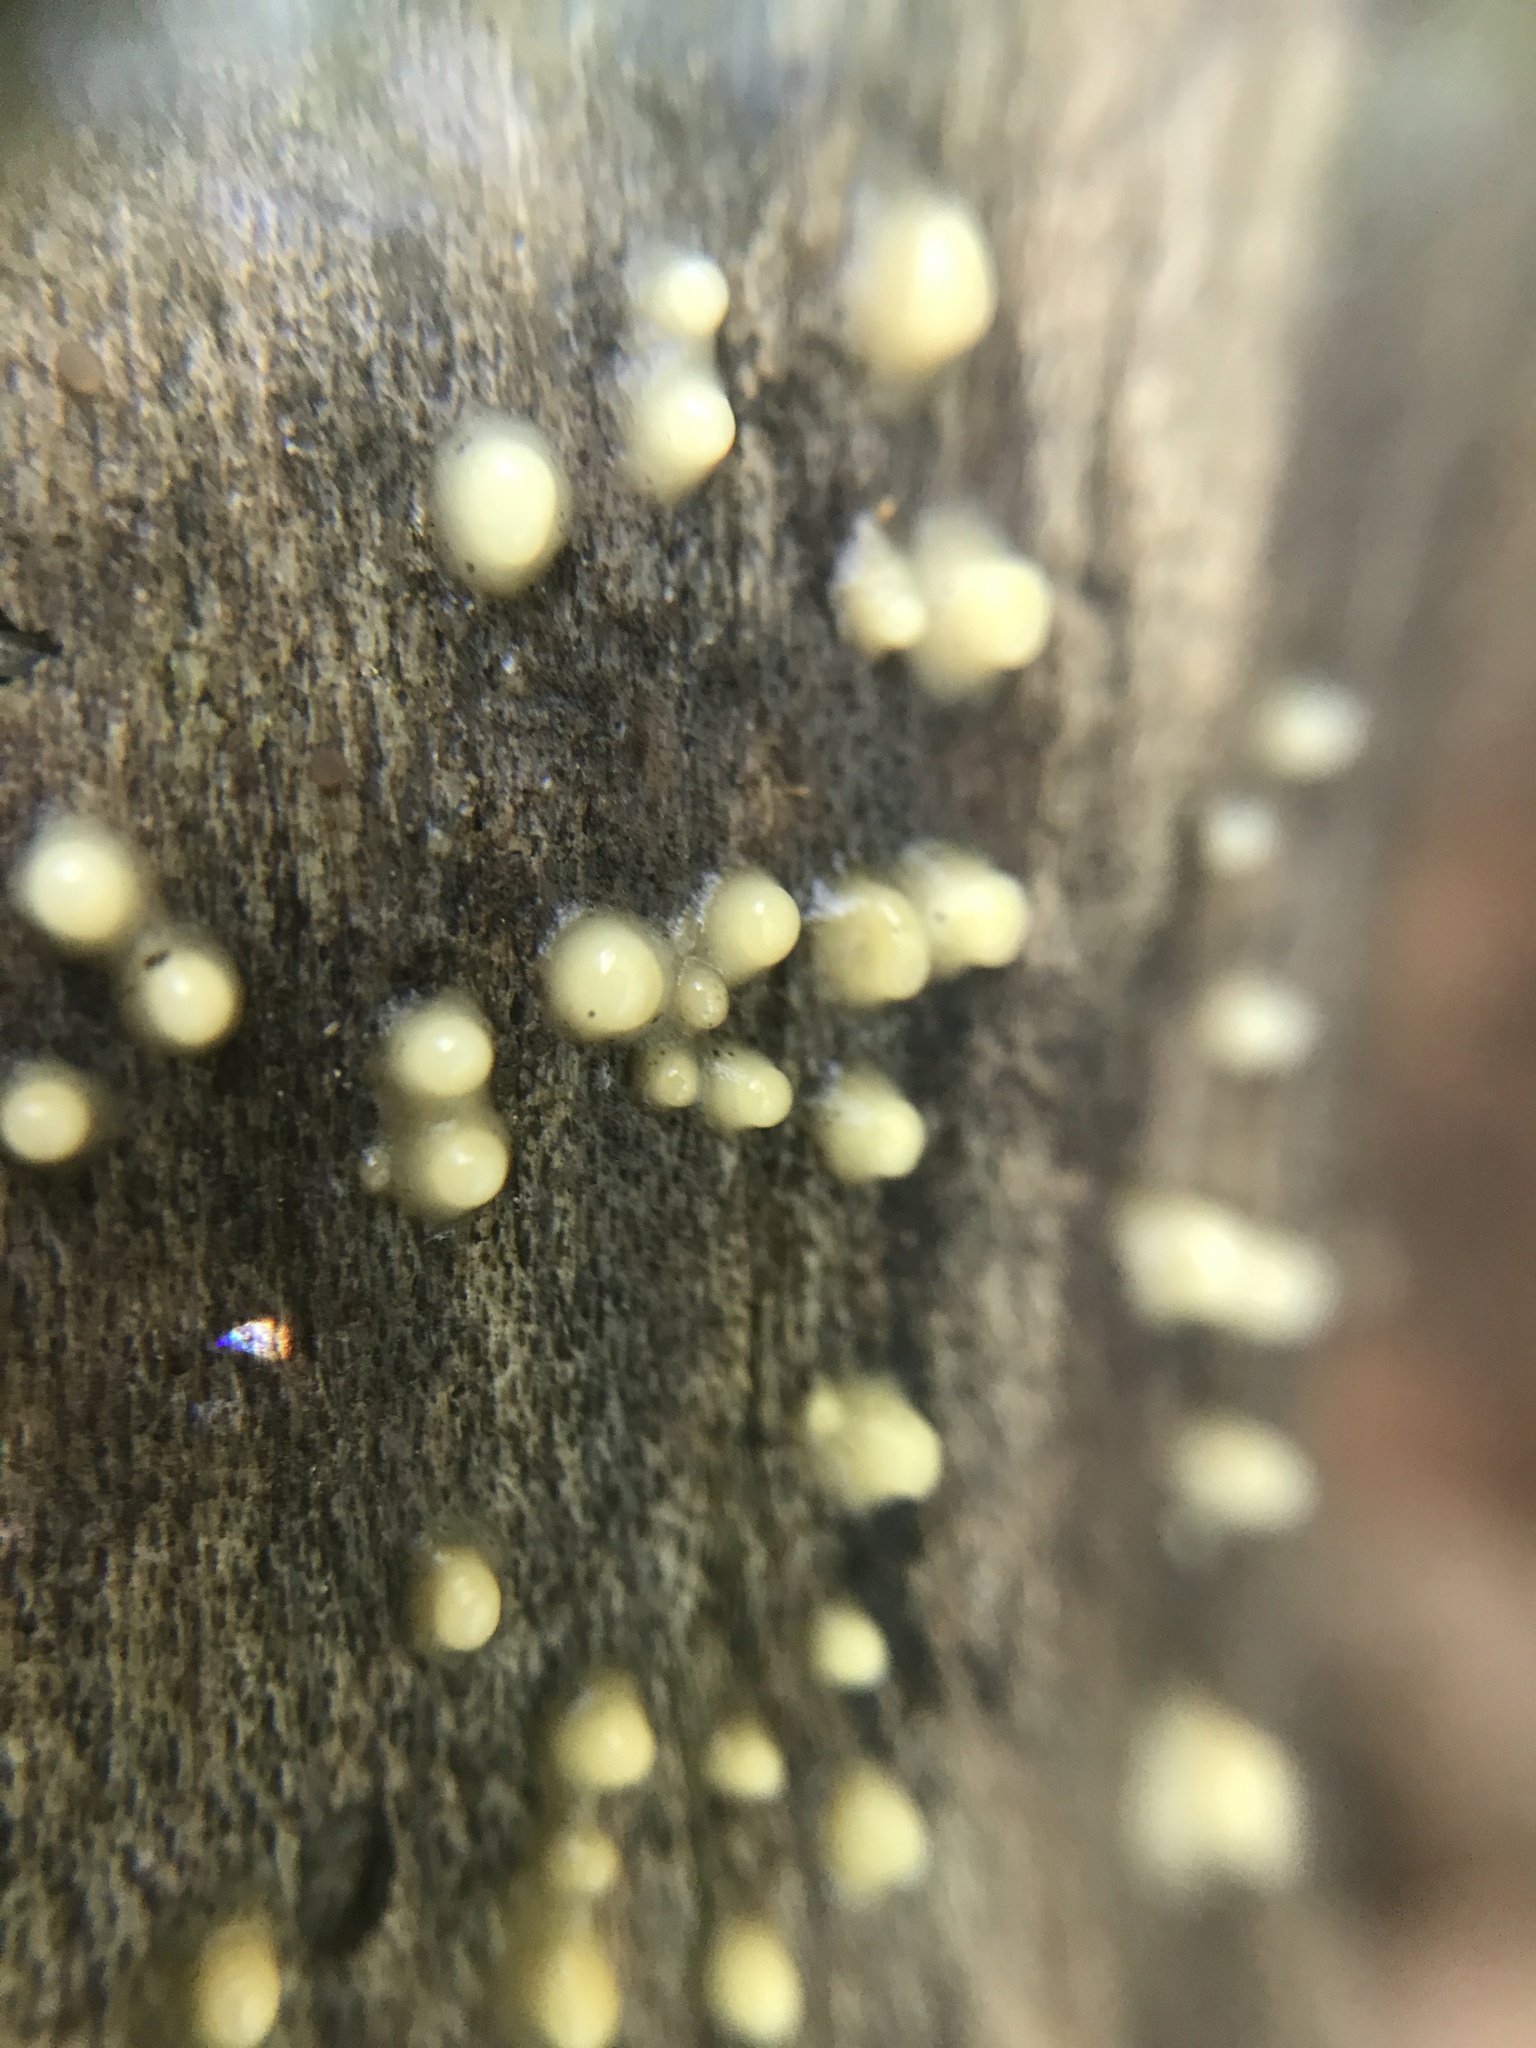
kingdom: Fungi
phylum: Basidiomycota
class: Atractiellomycetes
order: Atractiellales
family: Phleogenaceae
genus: Helicogloea
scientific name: Helicogloea compressa
